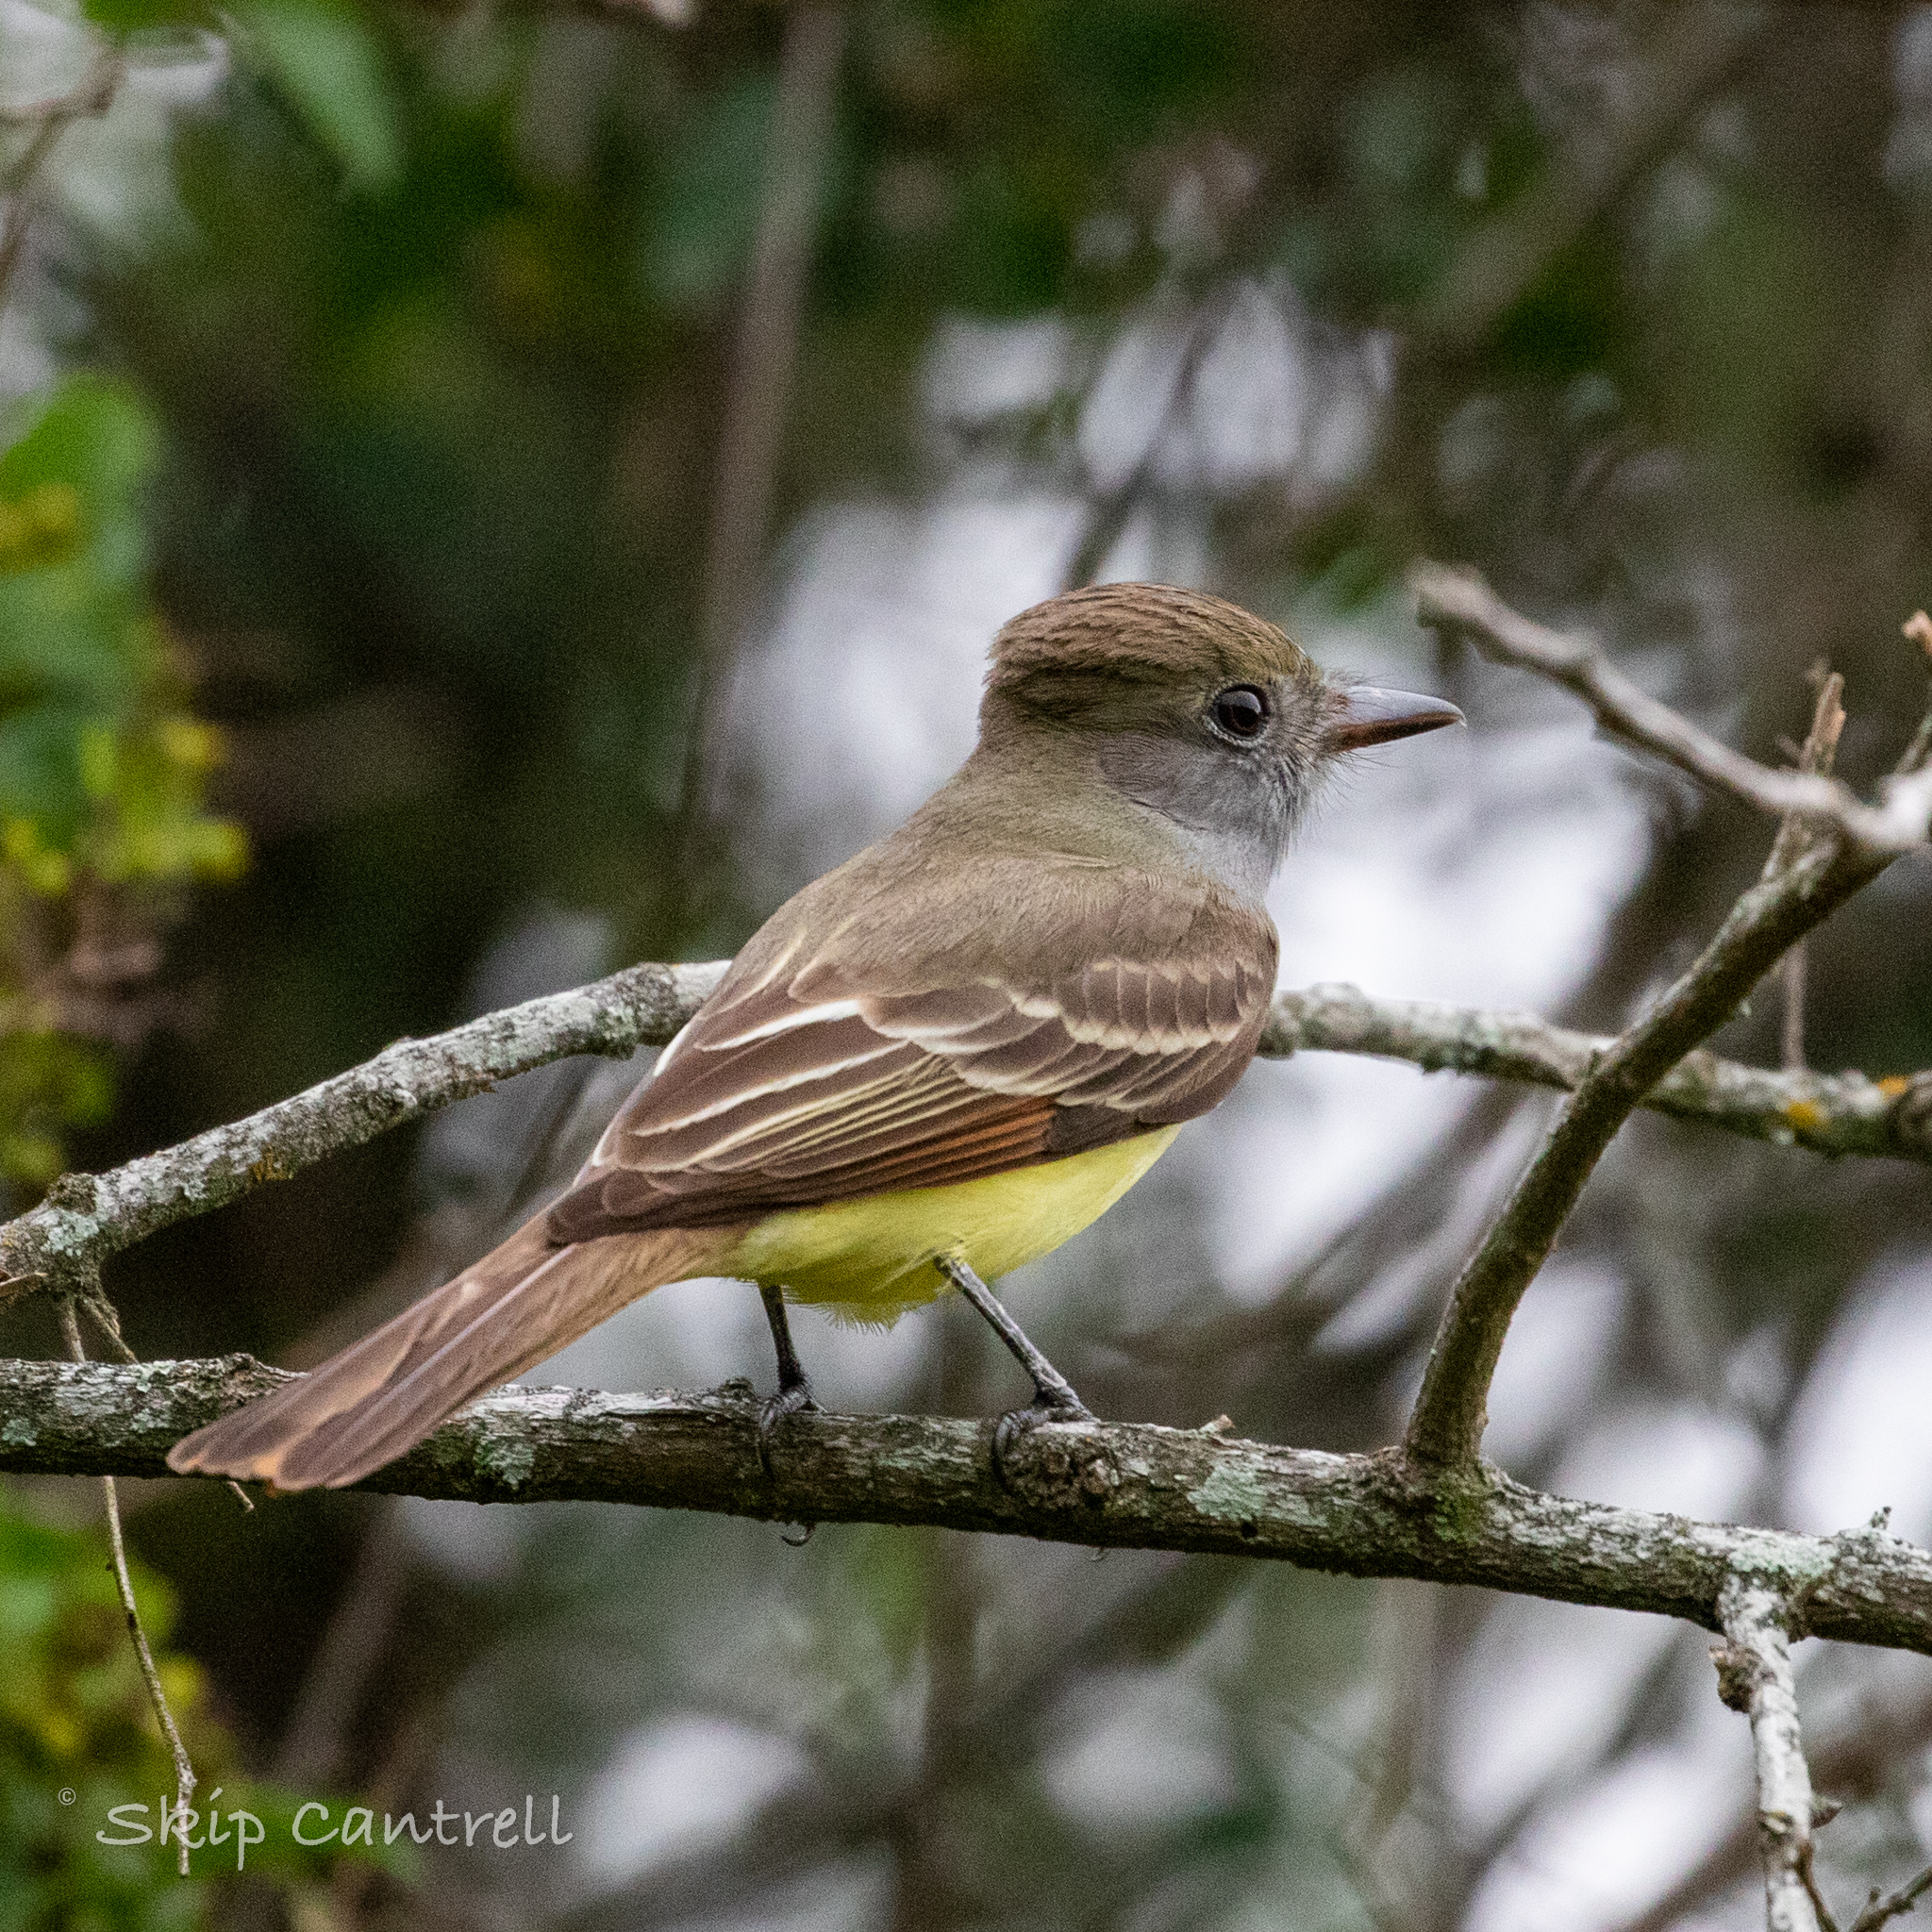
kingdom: Animalia
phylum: Chordata
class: Aves
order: Passeriformes
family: Tyrannidae
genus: Myiarchus
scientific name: Myiarchus crinitus
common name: Great crested flycatcher
